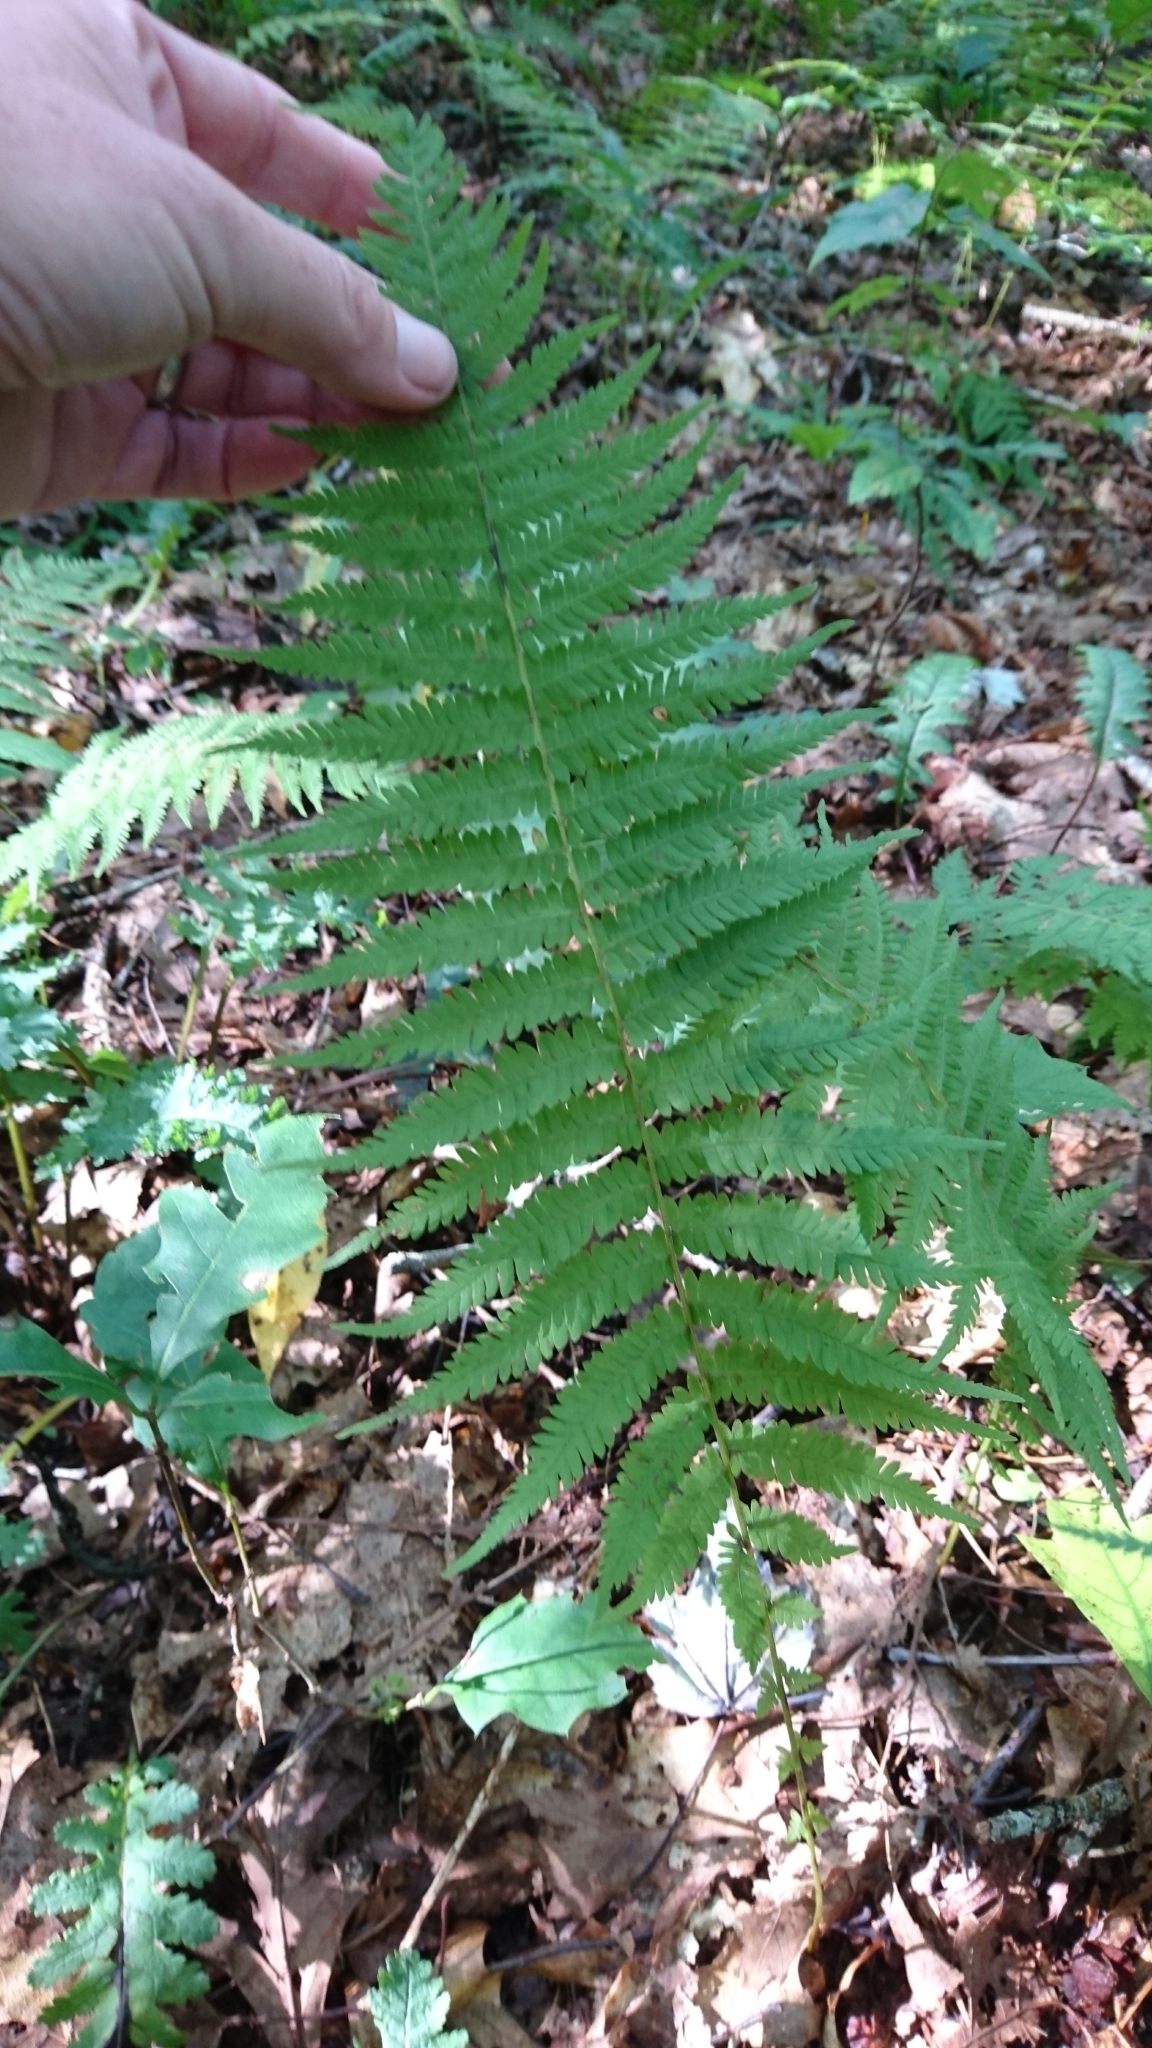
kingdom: Plantae
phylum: Tracheophyta
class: Polypodiopsida
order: Polypodiales
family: Thelypteridaceae
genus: Amauropelta
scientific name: Amauropelta noveboracensis
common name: New york fern
